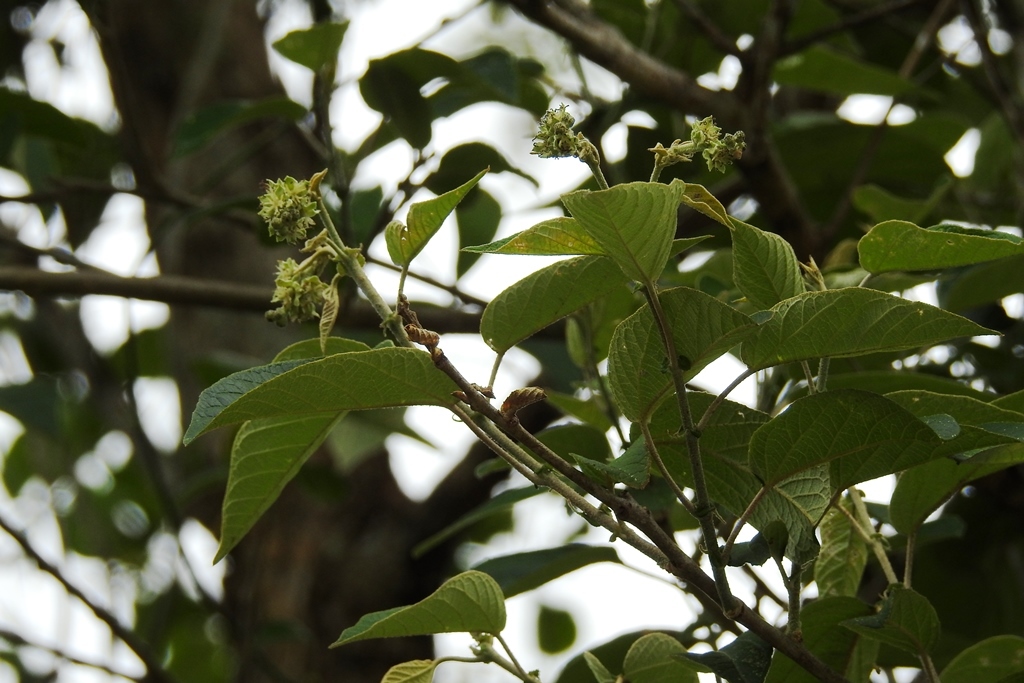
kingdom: Plantae
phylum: Tracheophyta
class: Magnoliopsida
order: Fabales
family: Fabaceae
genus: Desmodium
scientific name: Desmodium sumichrastii
